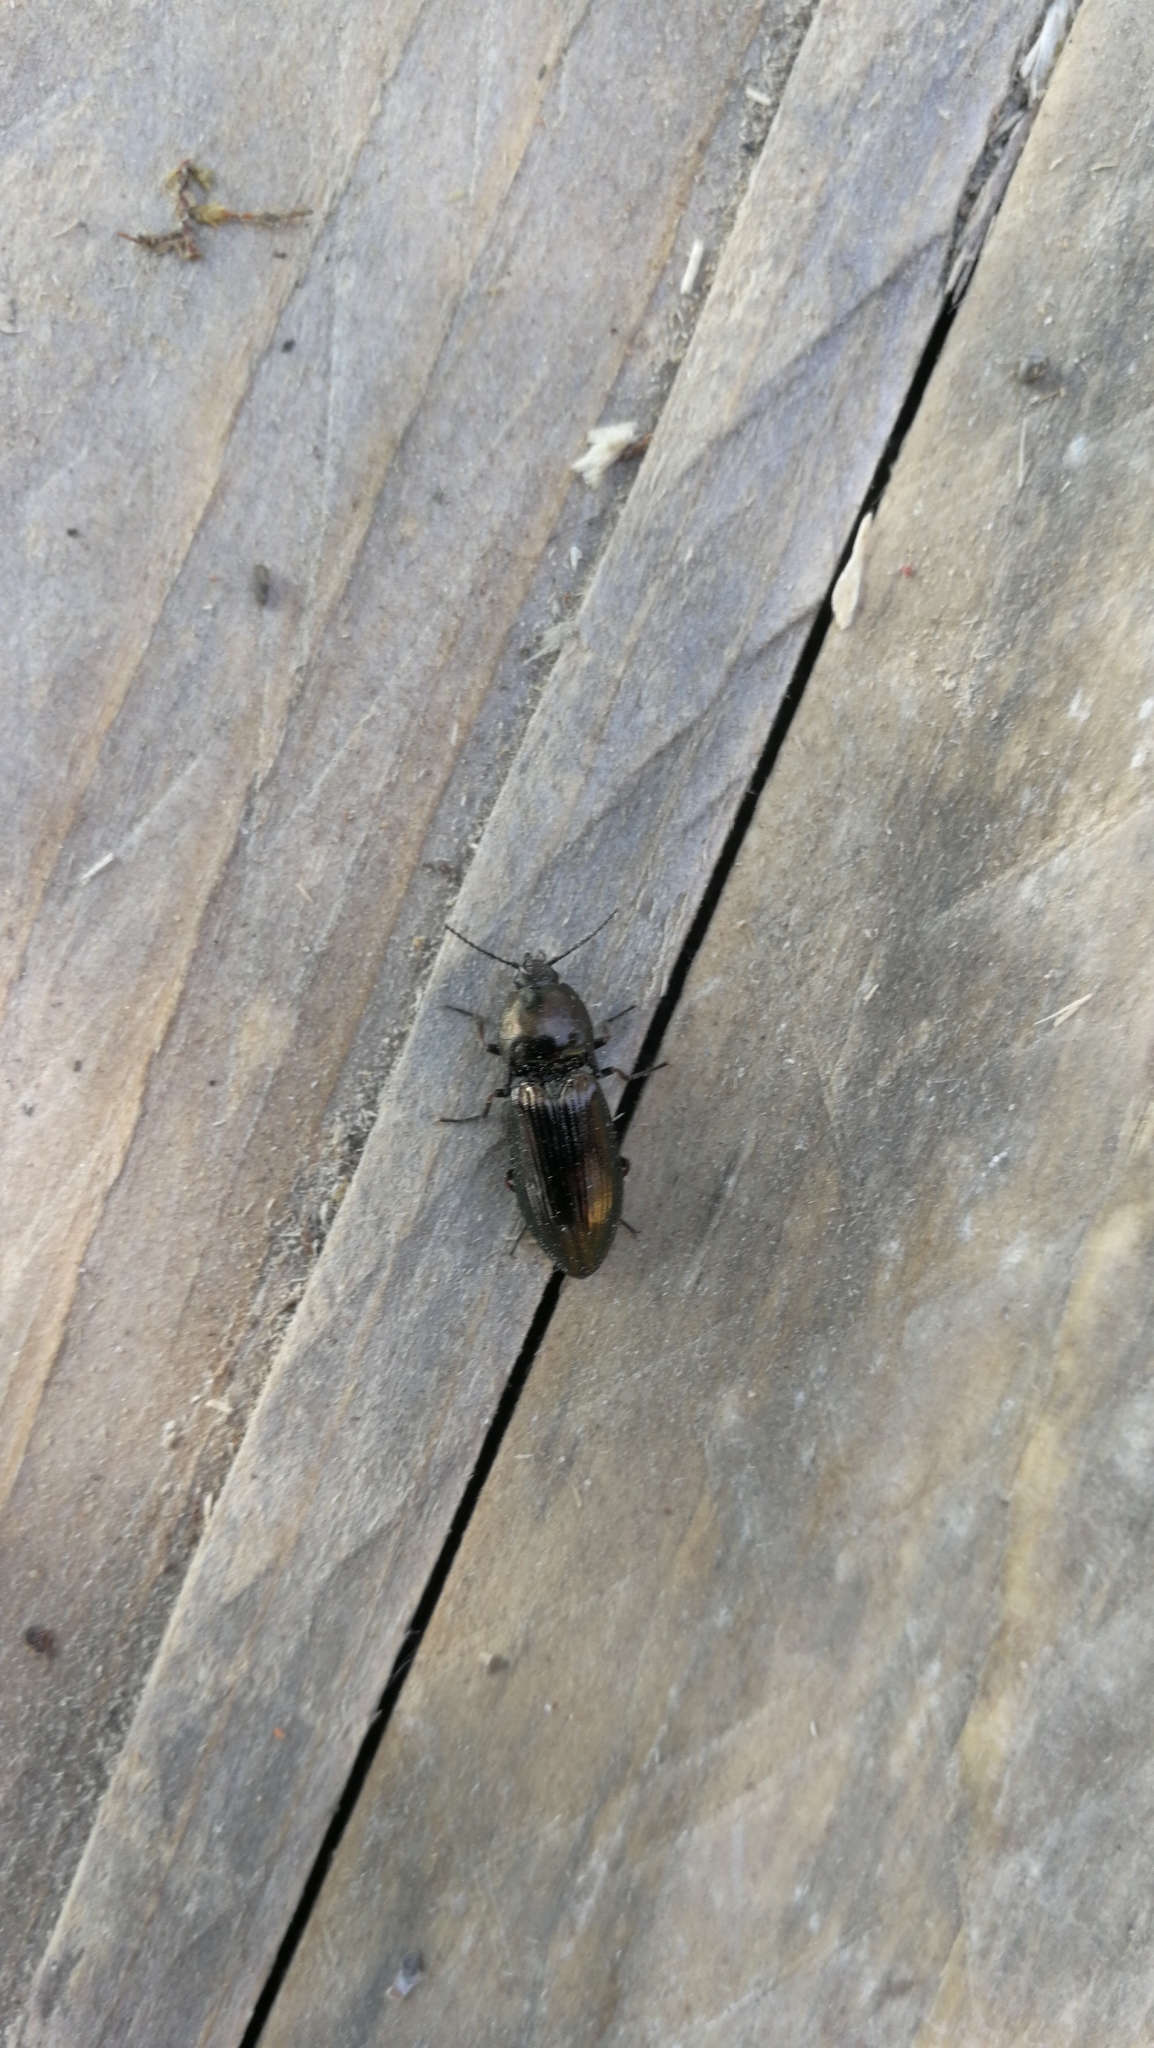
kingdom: Animalia
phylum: Arthropoda
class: Insecta
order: Coleoptera
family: Elateridae
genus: Selatosomus
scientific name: Selatosomus aeneus
